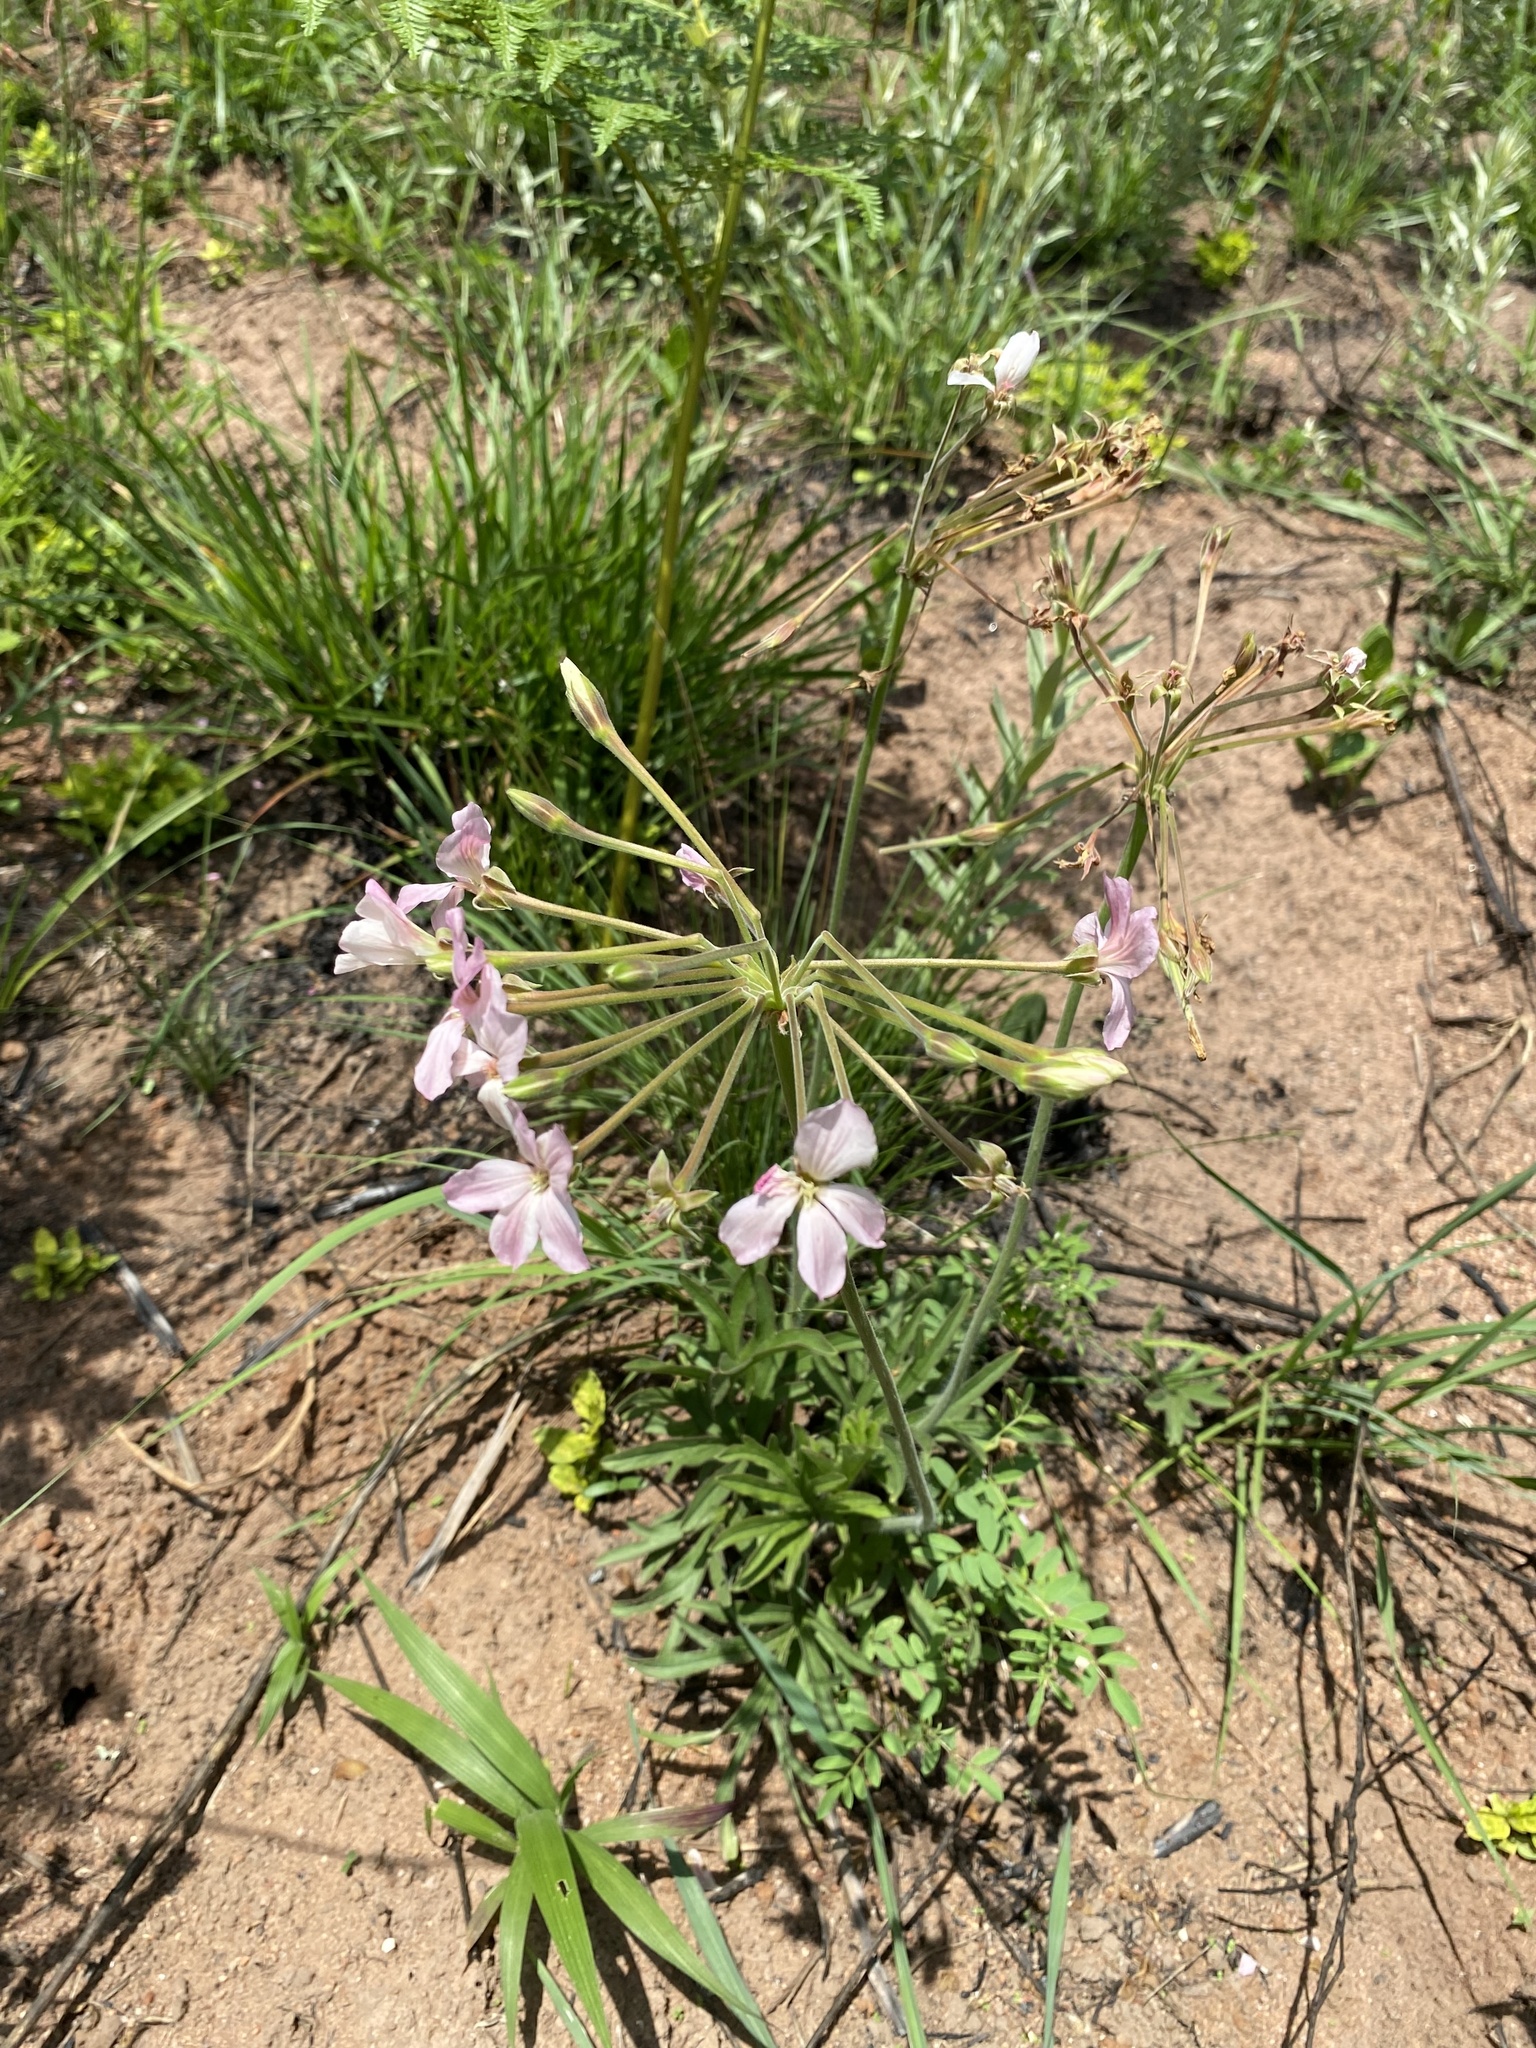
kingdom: Plantae
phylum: Tracheophyta
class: Magnoliopsida
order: Geraniales
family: Geraniaceae
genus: Pelargonium
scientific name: Pelargonium luridum
